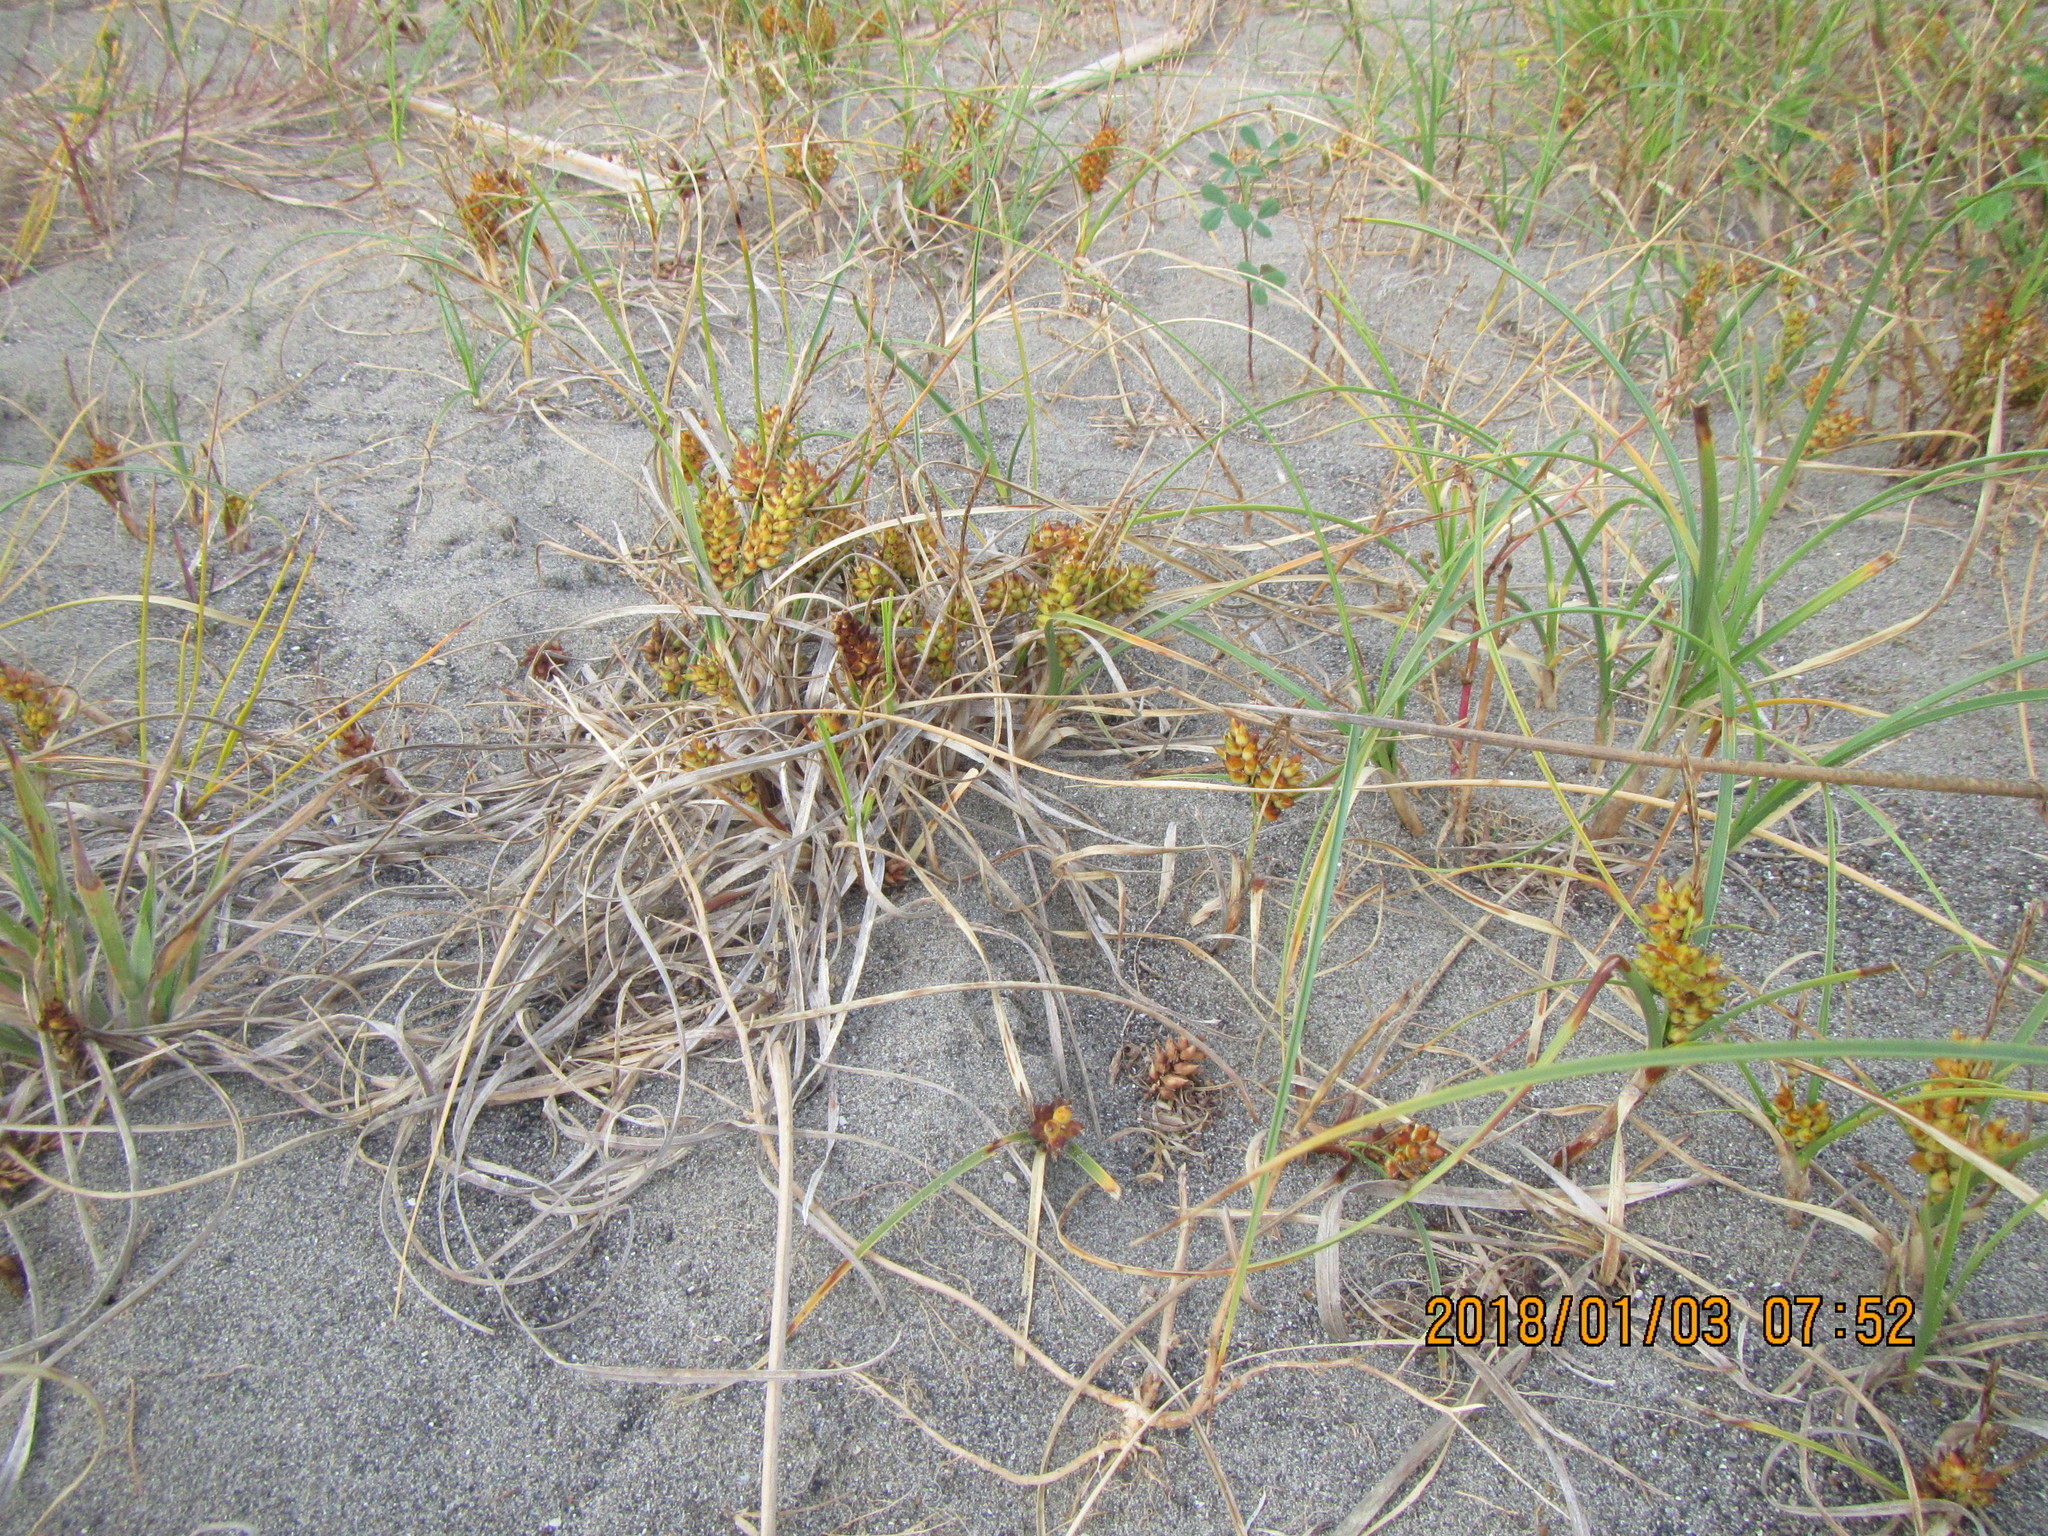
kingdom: Plantae
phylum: Tracheophyta
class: Liliopsida
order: Poales
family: Cyperaceae
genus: Carex
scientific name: Carex pumila
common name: Dwarf sedge
